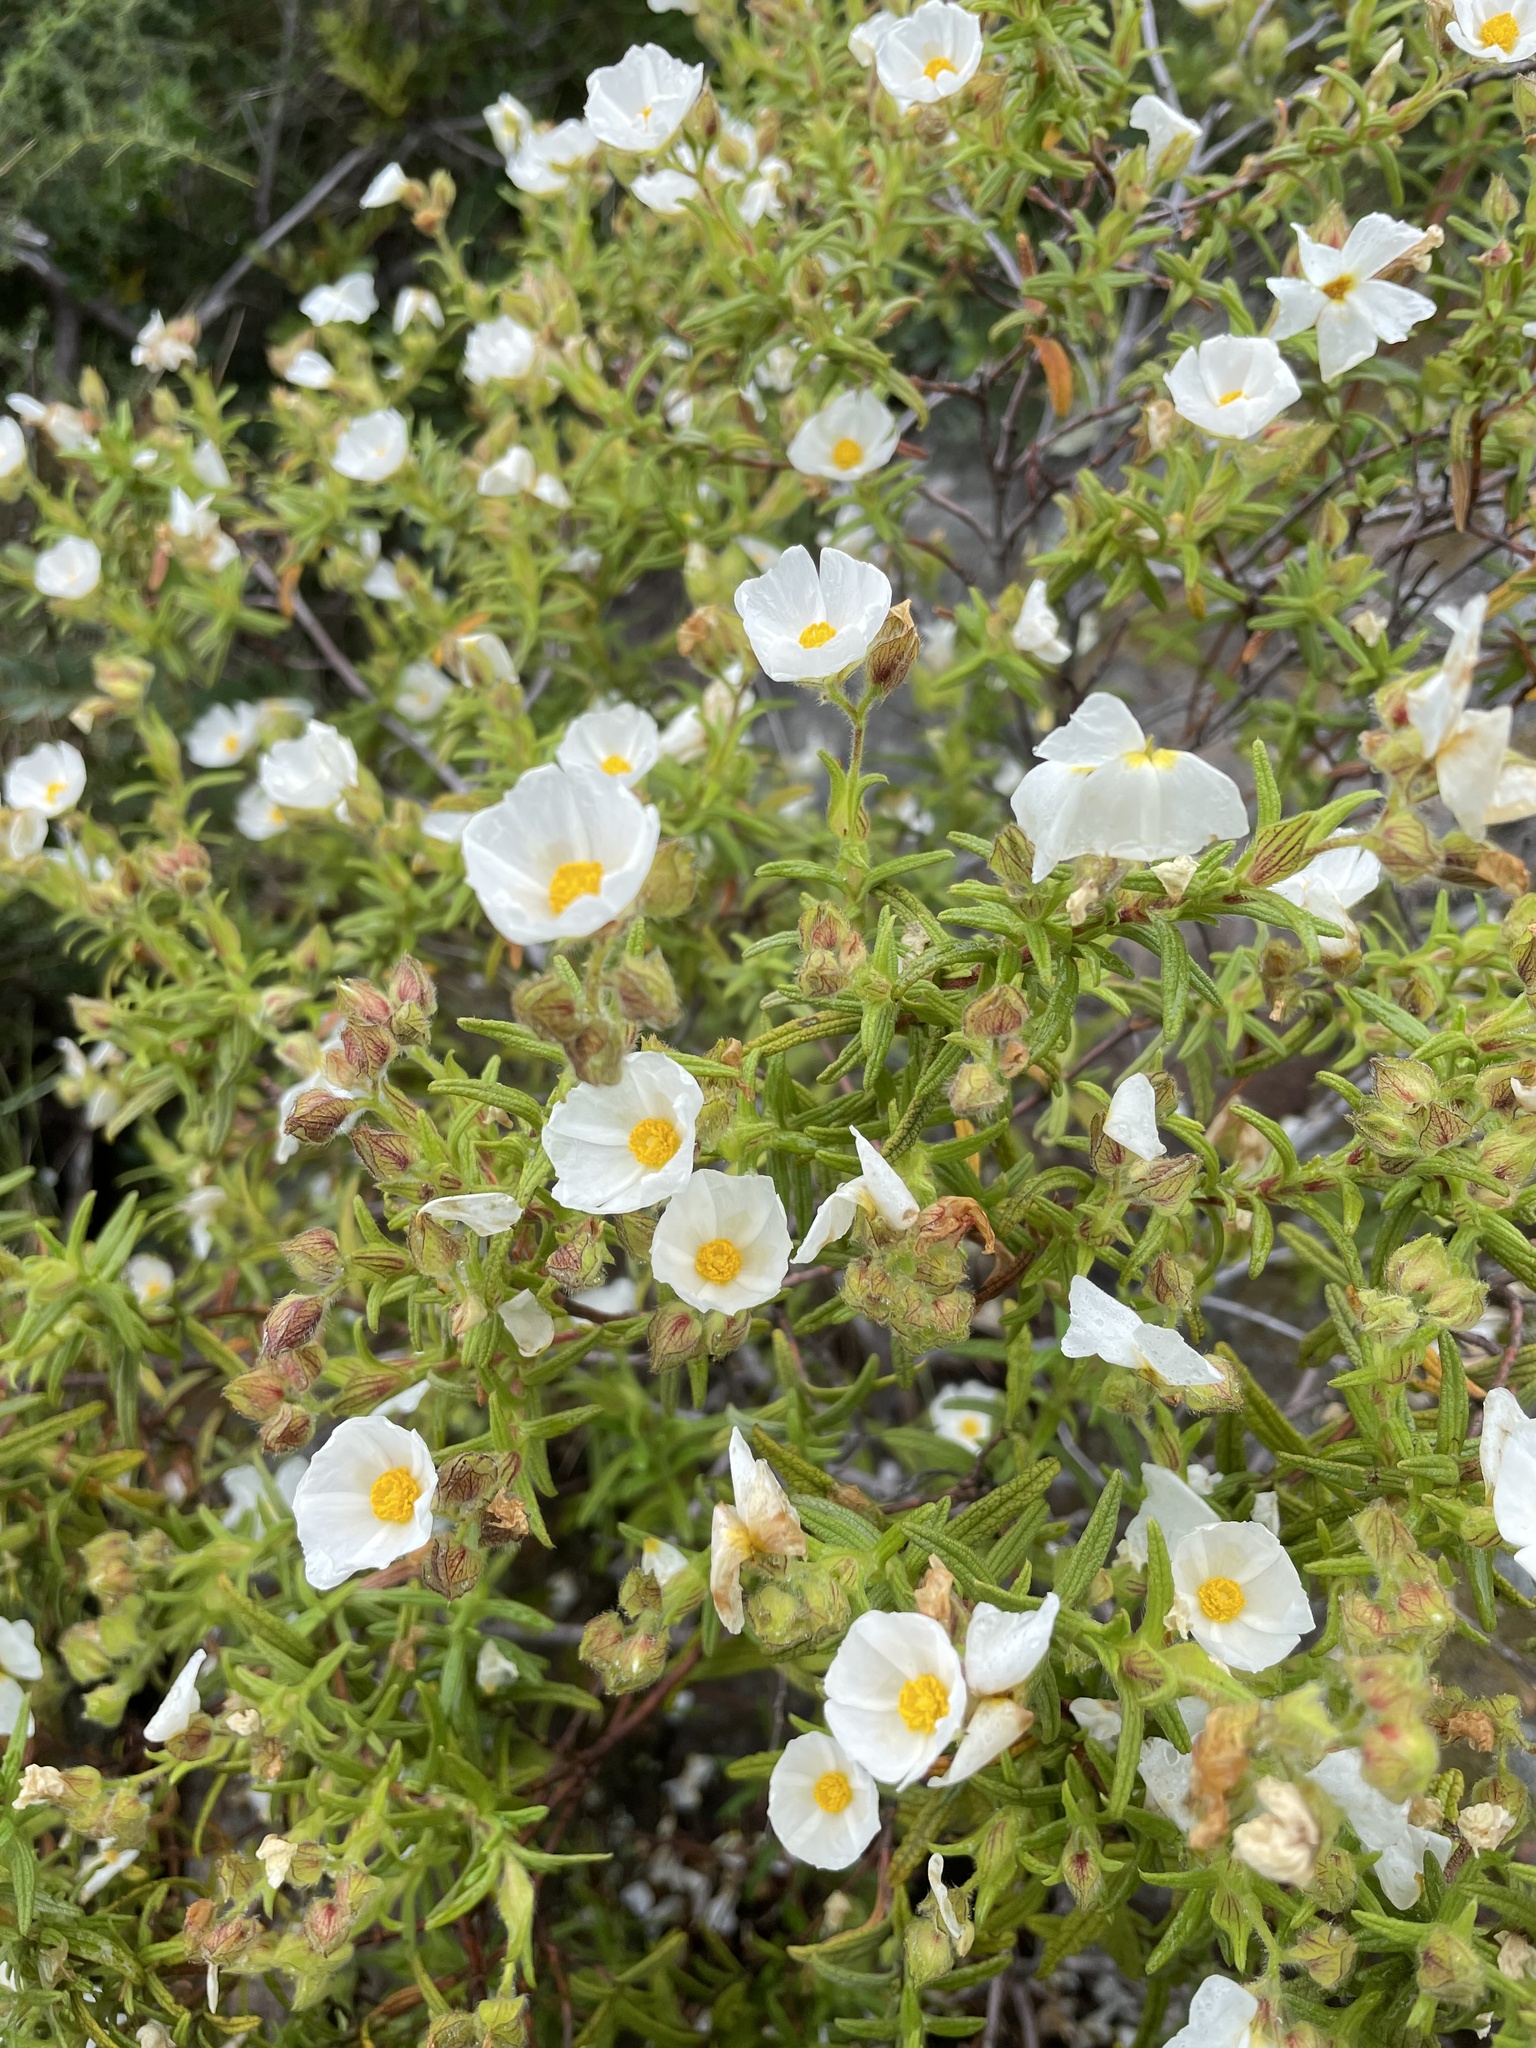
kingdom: Plantae
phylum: Tracheophyta
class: Magnoliopsida
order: Malvales
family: Cistaceae
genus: Cistus
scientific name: Cistus monspeliensis
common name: Montpelier cistus
